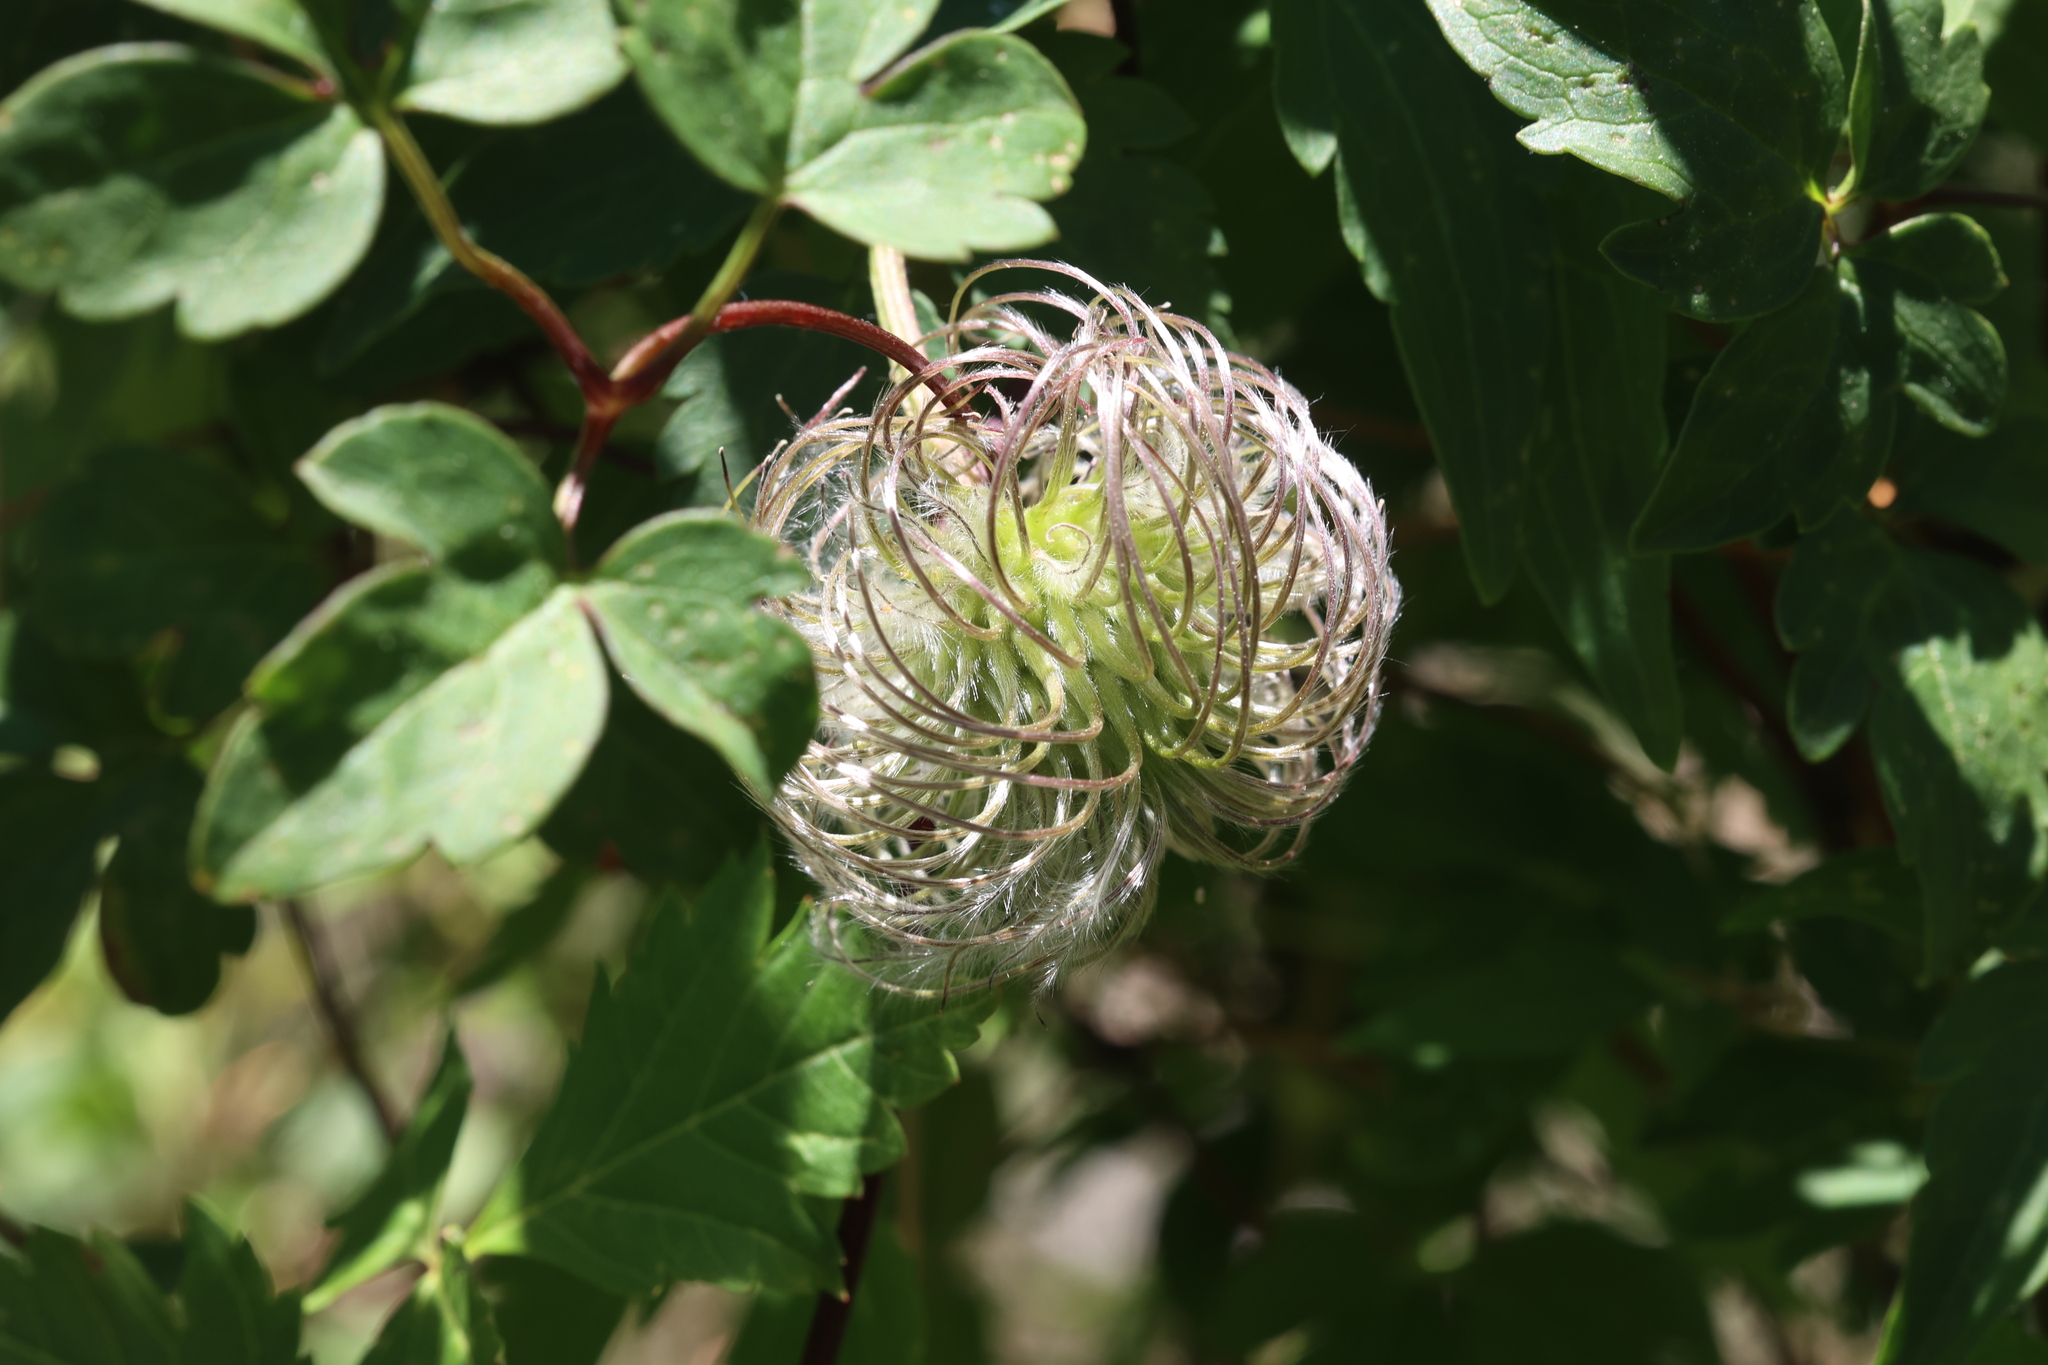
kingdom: Plantae
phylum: Tracheophyta
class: Magnoliopsida
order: Ranunculales
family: Ranunculaceae
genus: Clematis
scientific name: Clematis columbiana
